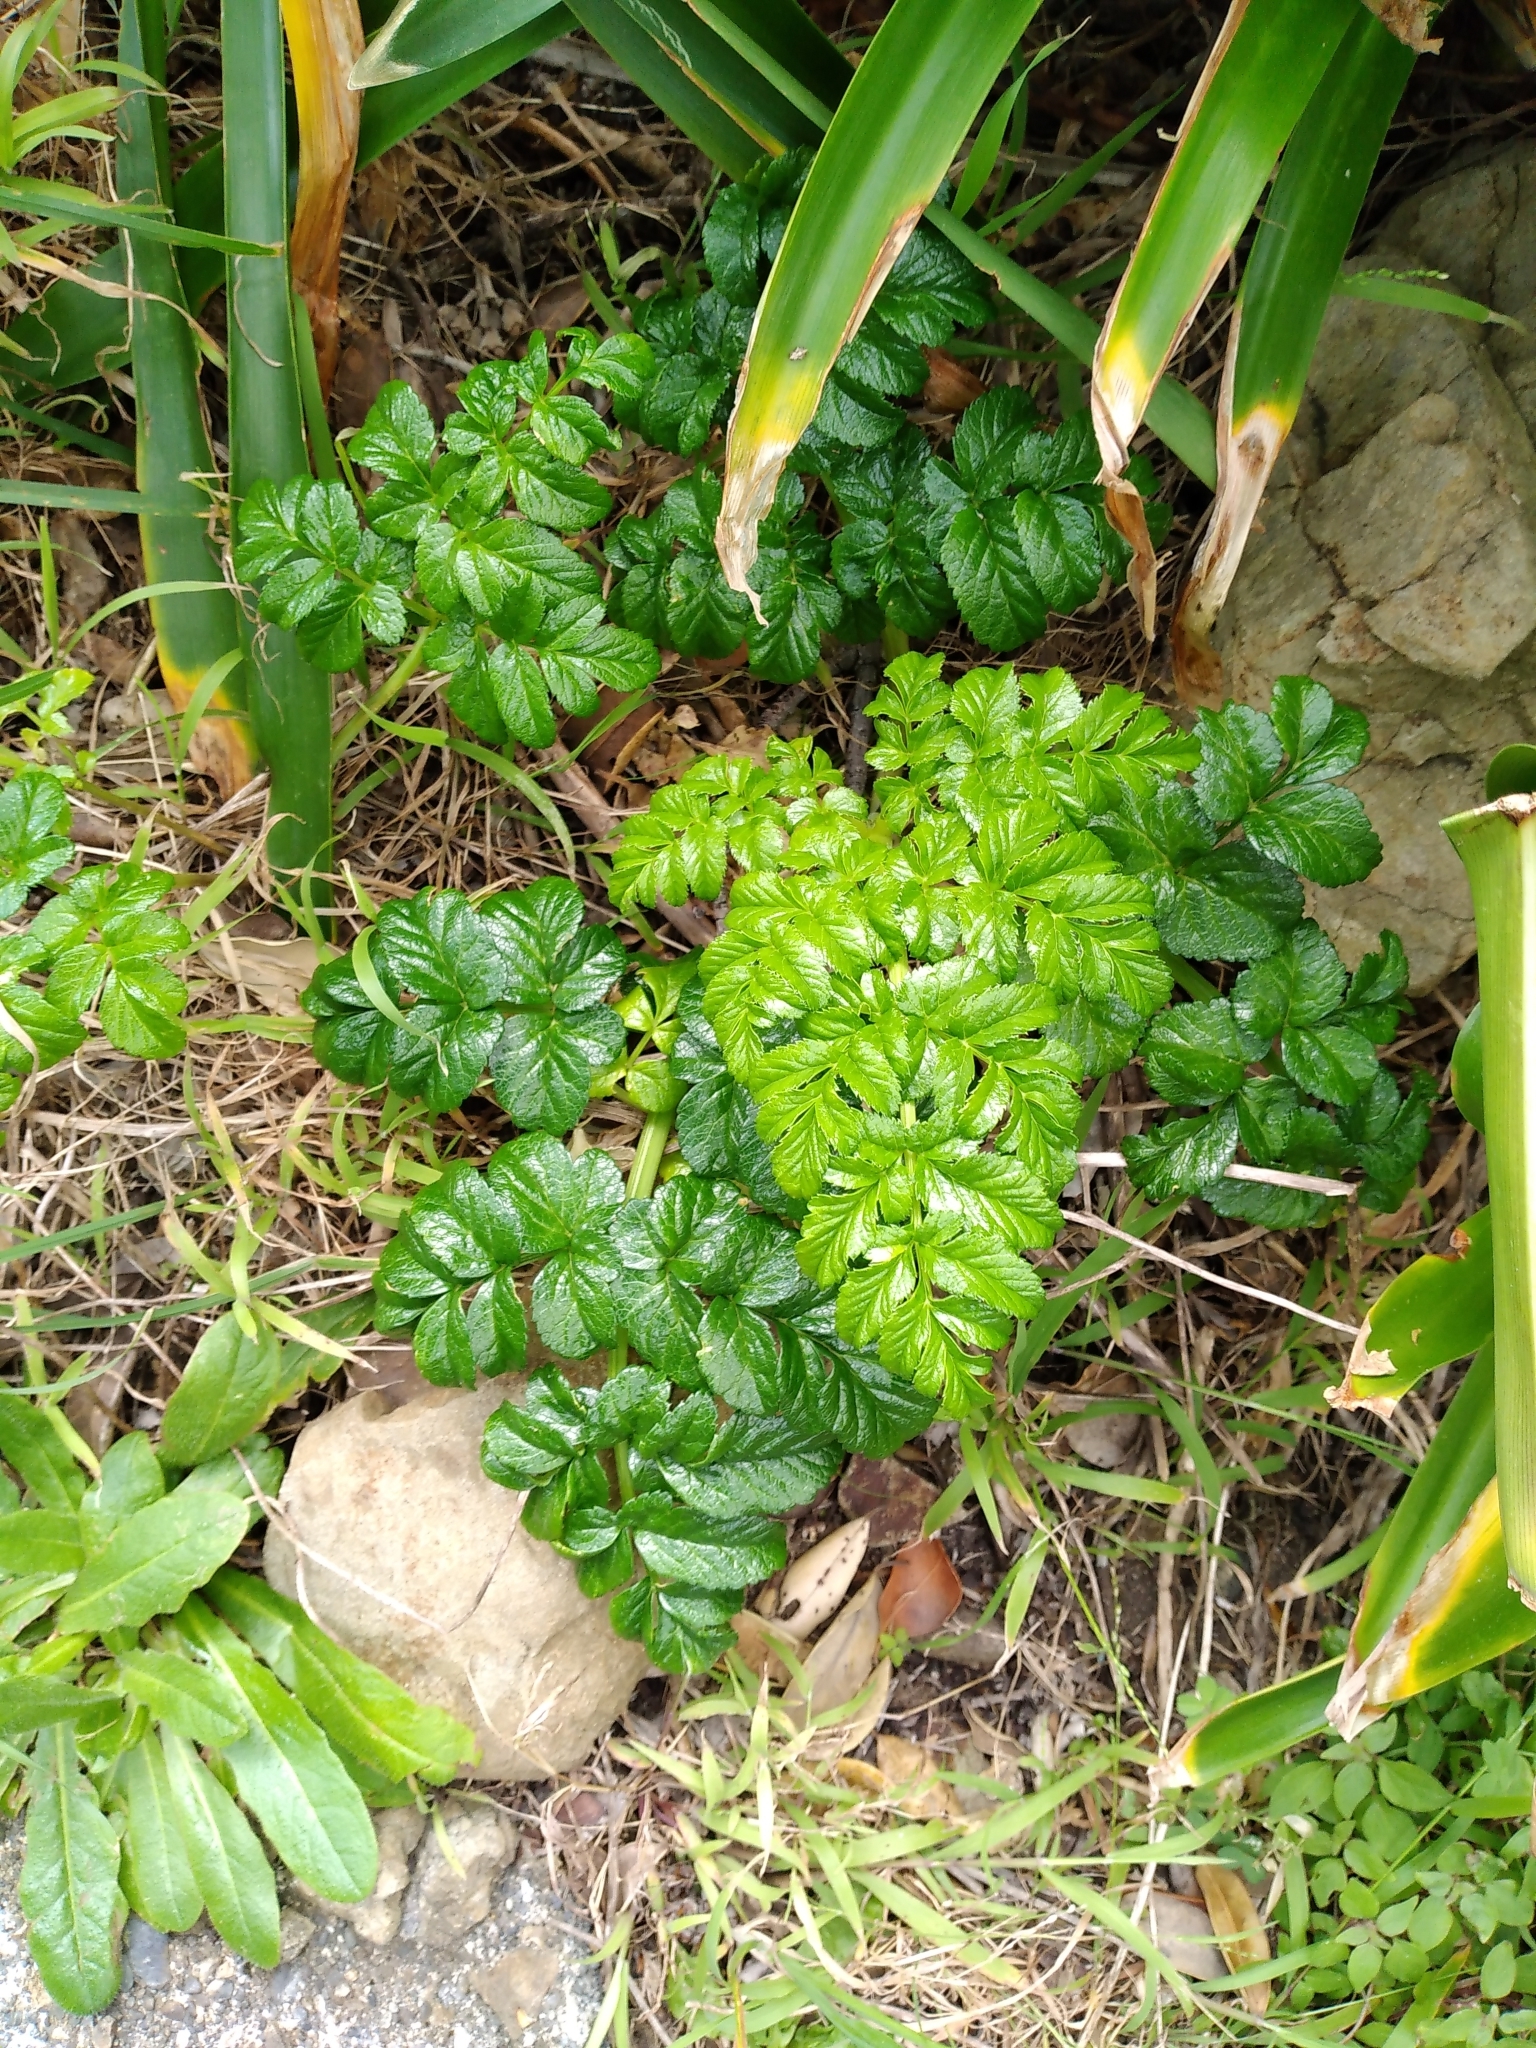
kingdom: Plantae
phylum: Tracheophyta
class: Magnoliopsida
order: Apiales
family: Apiaceae
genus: Angelica
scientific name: Angelica pachycarpa
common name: Portuguese angelica
